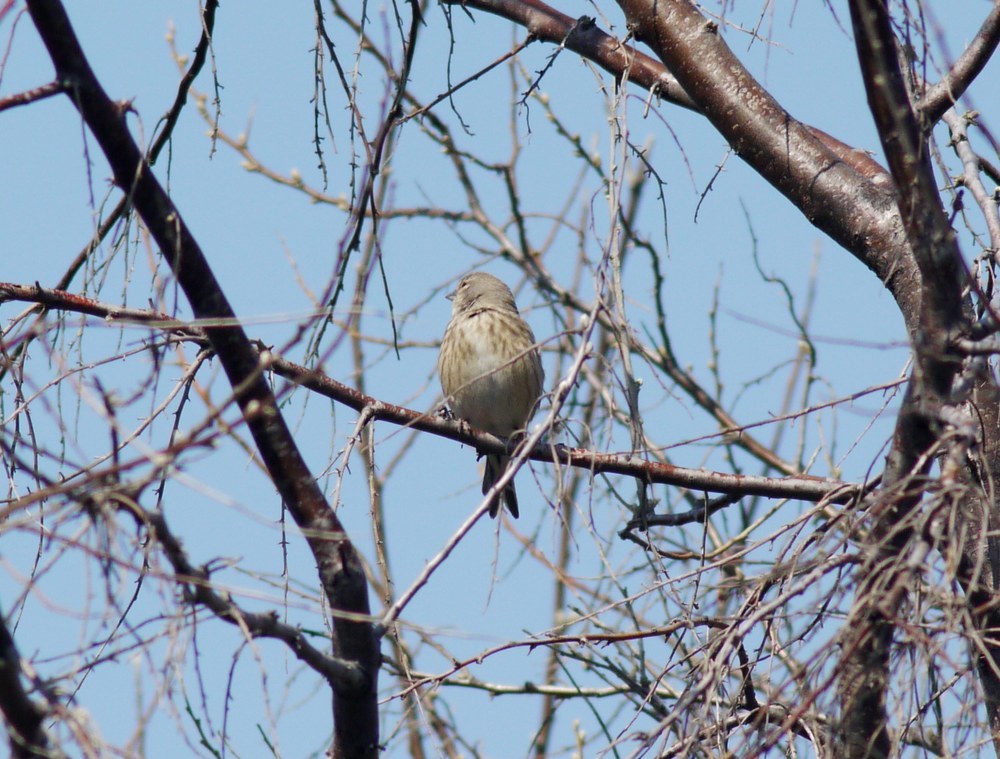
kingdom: Animalia
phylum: Chordata
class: Aves
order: Passeriformes
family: Fringillidae
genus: Linaria
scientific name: Linaria cannabina
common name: Common linnet
